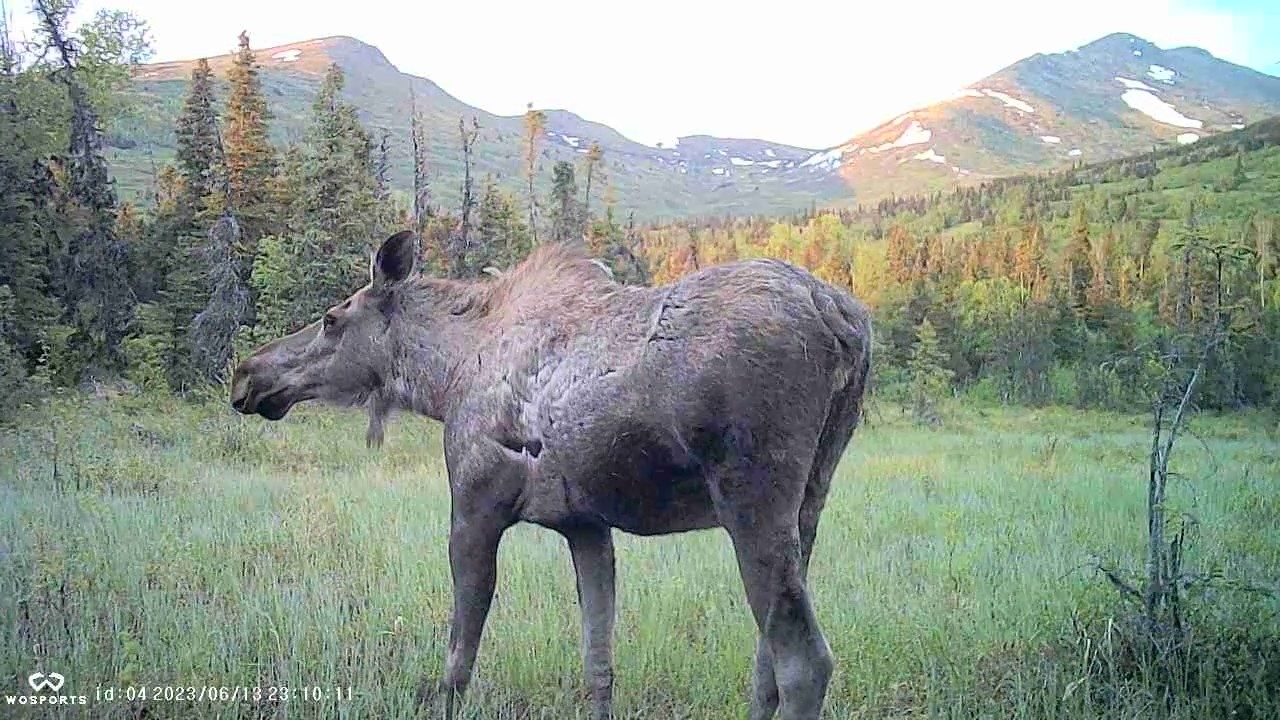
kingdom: Animalia
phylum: Chordata
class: Mammalia
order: Artiodactyla
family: Cervidae
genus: Alces
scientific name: Alces alces
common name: Moose
